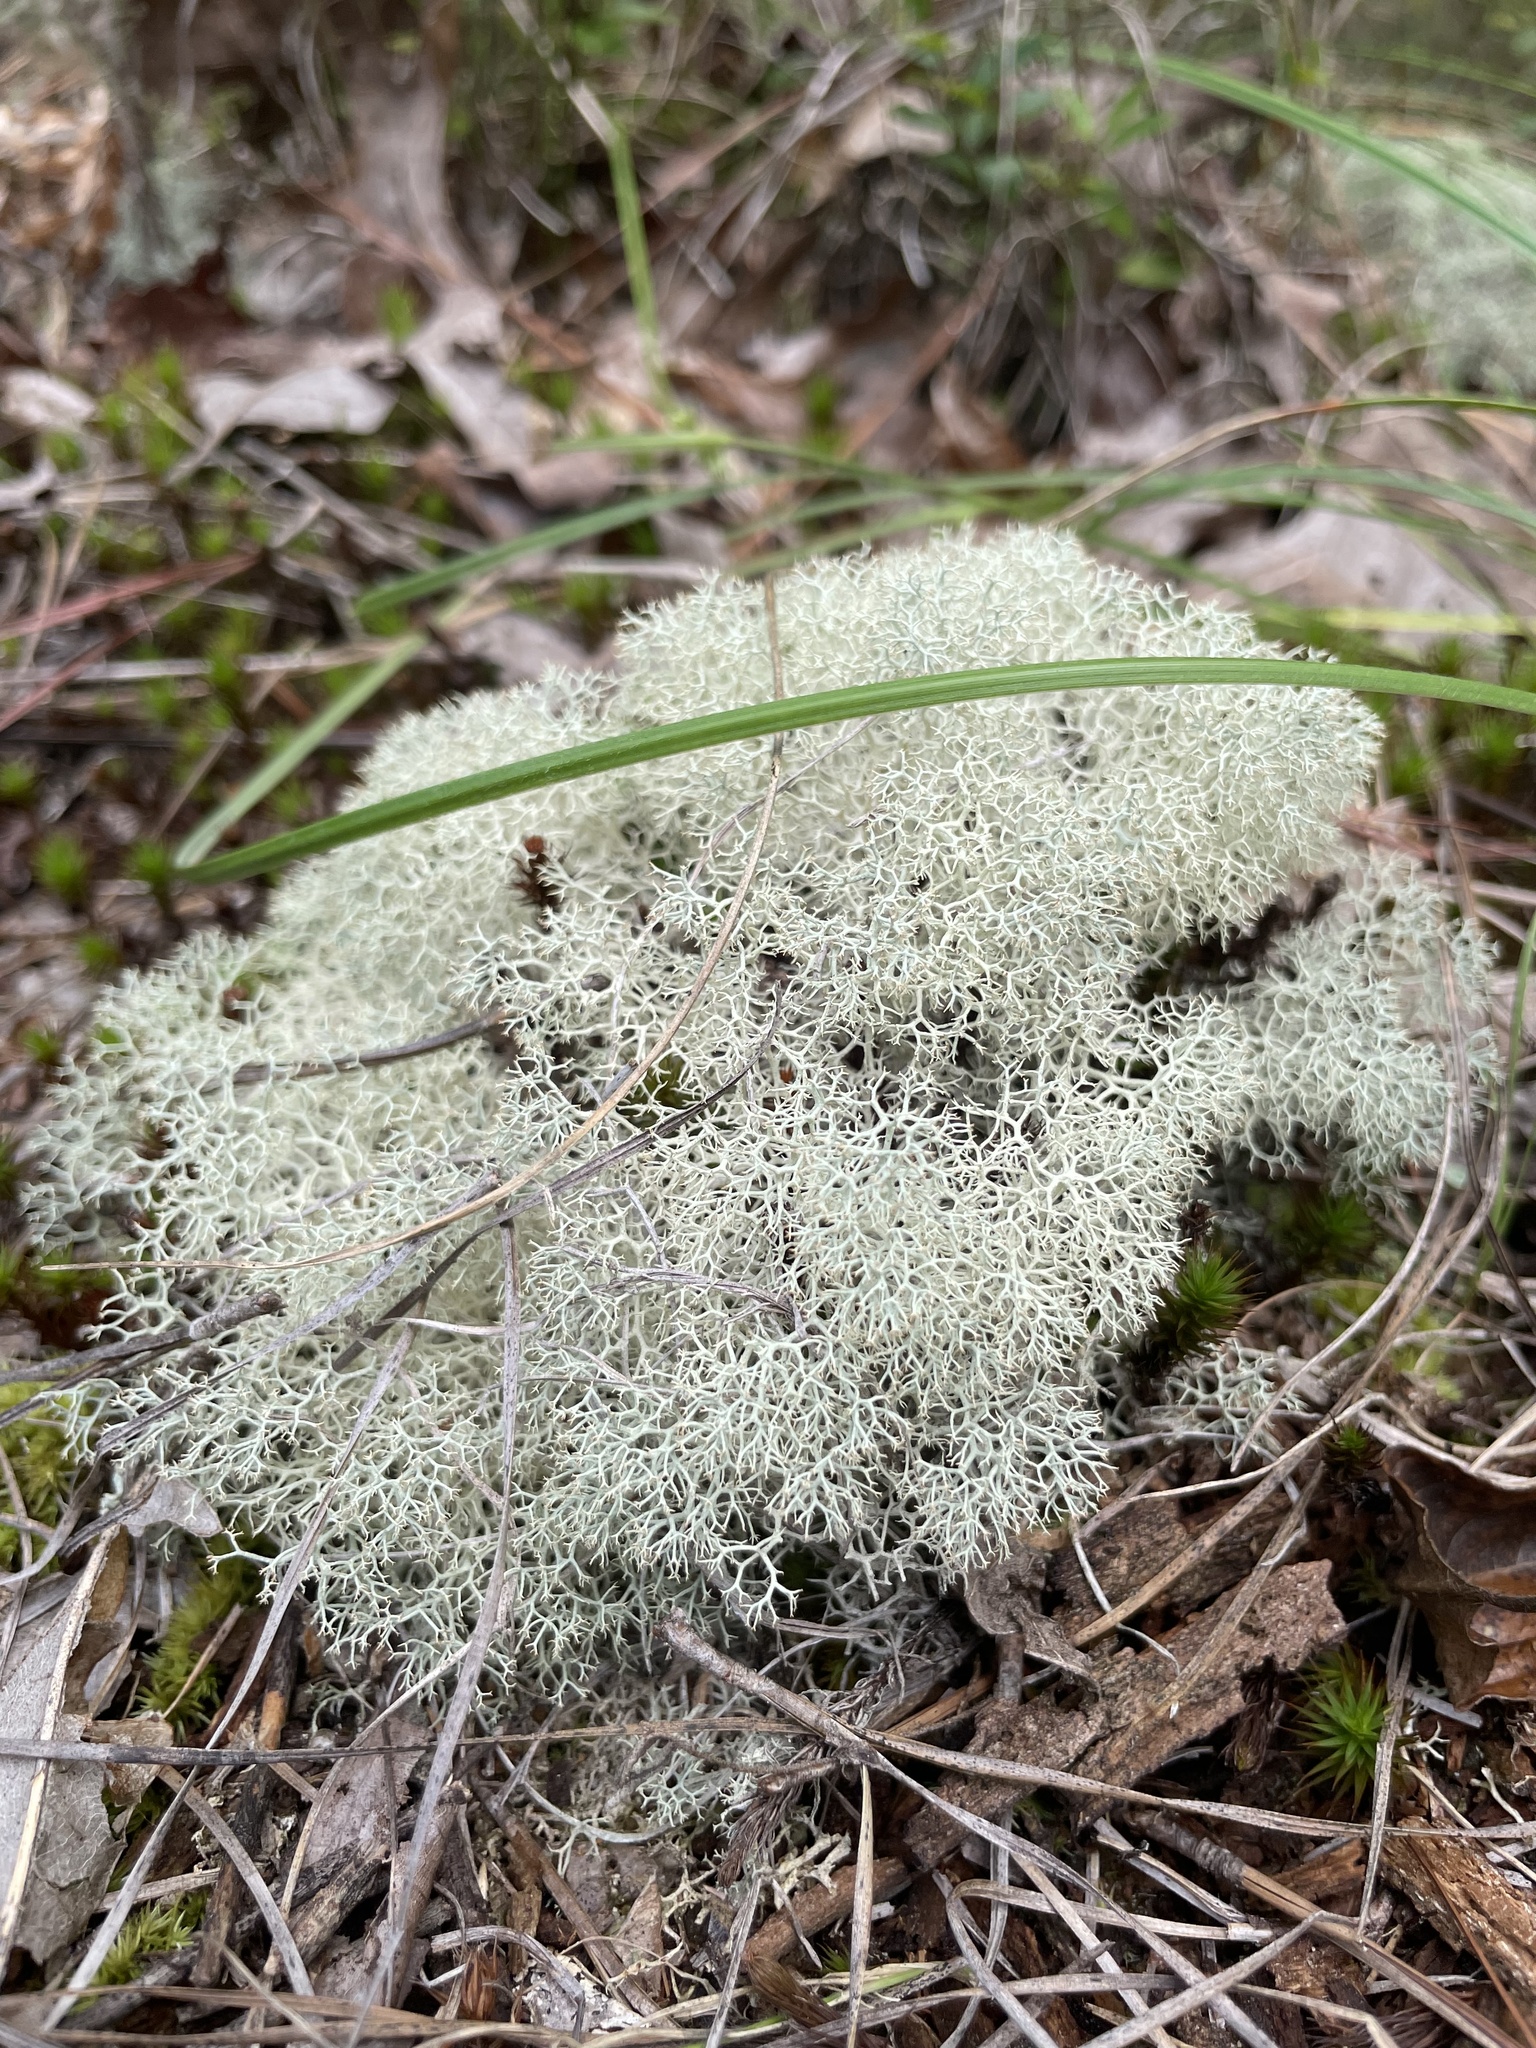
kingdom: Fungi
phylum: Ascomycota
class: Lecanoromycetes
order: Lecanorales
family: Cladoniaceae
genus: Cladonia
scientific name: Cladonia subtenuis
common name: Dixie reindeer lichen
